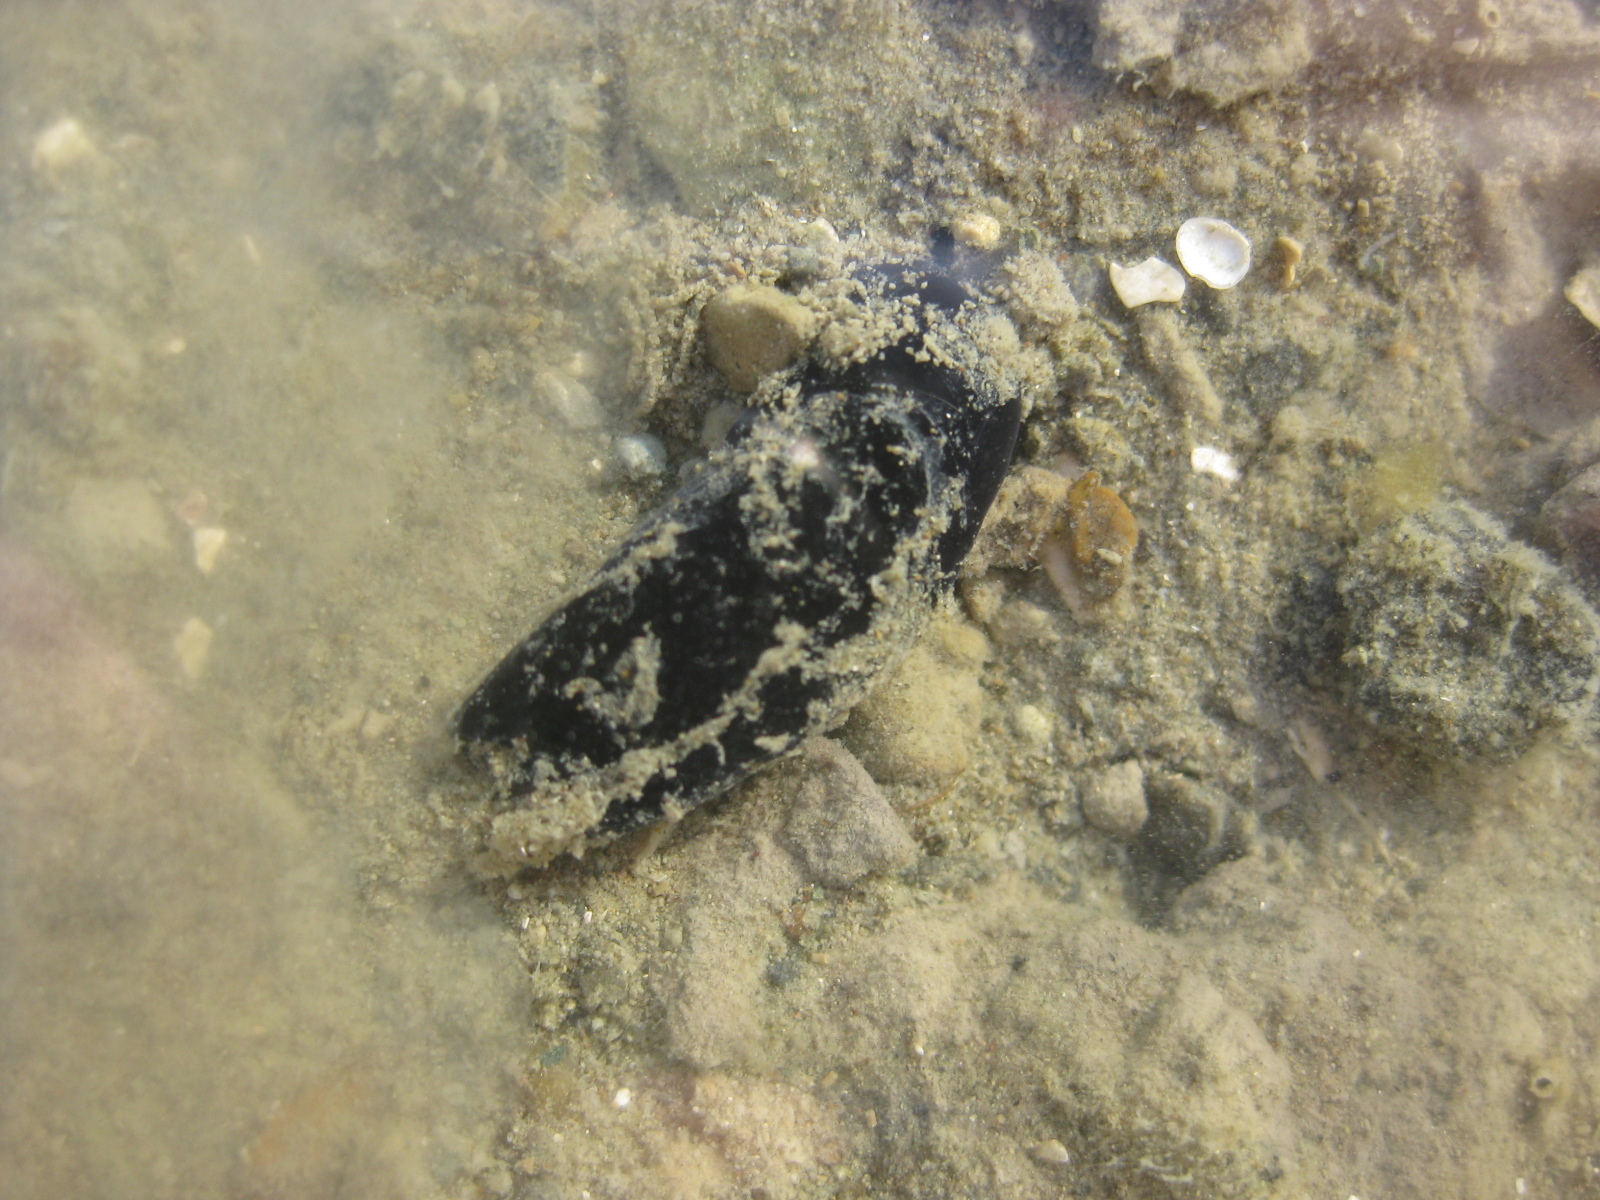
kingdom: Animalia
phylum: Mollusca
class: Gastropoda
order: Cephalaspidea
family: Aglajidae
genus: Melanochlamys
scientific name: Melanochlamys cylindrica
